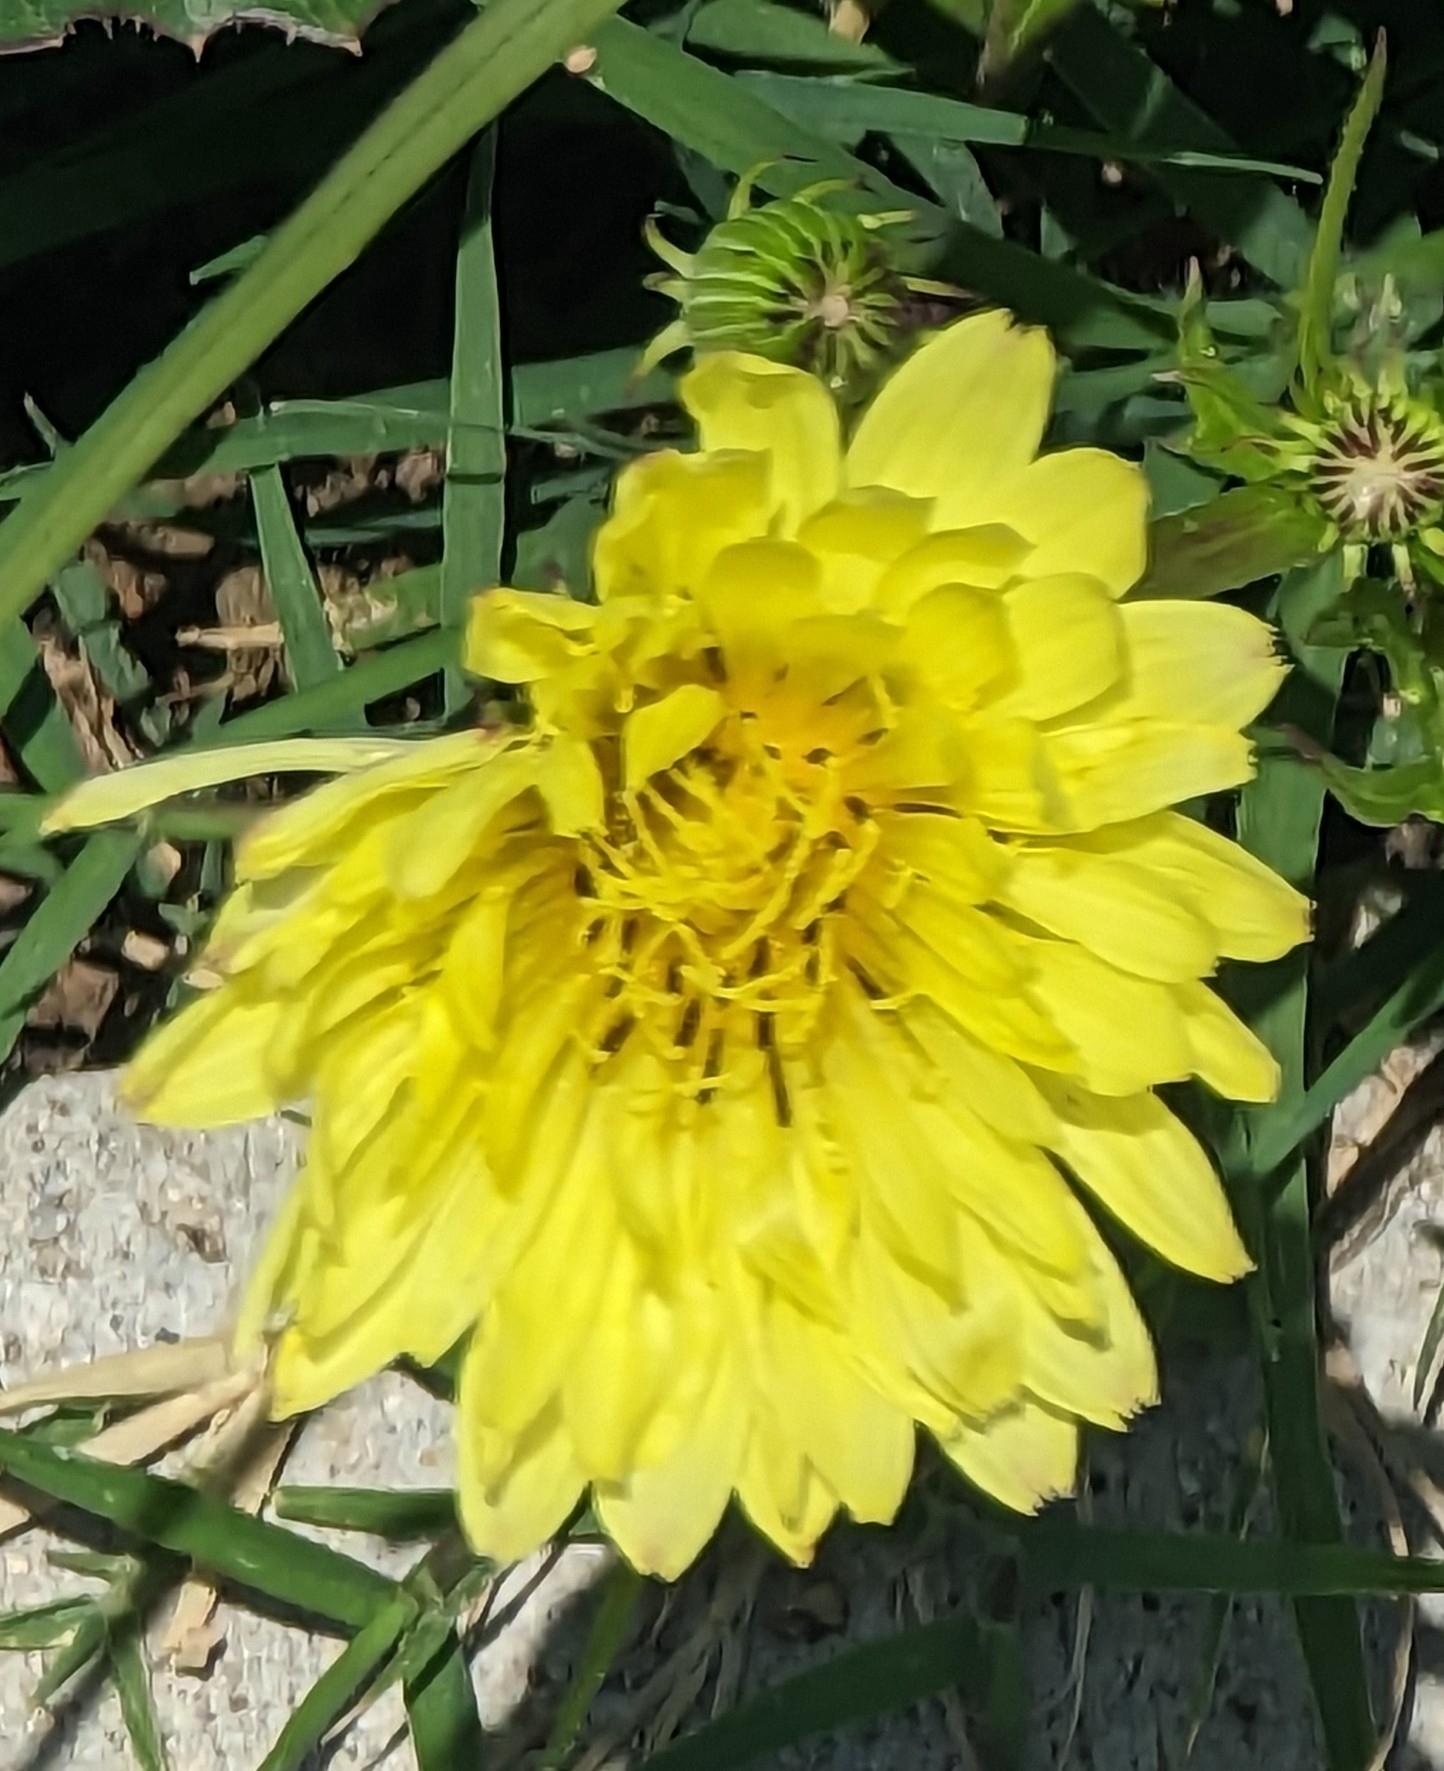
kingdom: Plantae
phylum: Tracheophyta
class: Magnoliopsida
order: Asterales
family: Asteraceae
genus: Pyrrhopappus
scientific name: Pyrrhopappus pauciflorus
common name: Texas false dandelion
